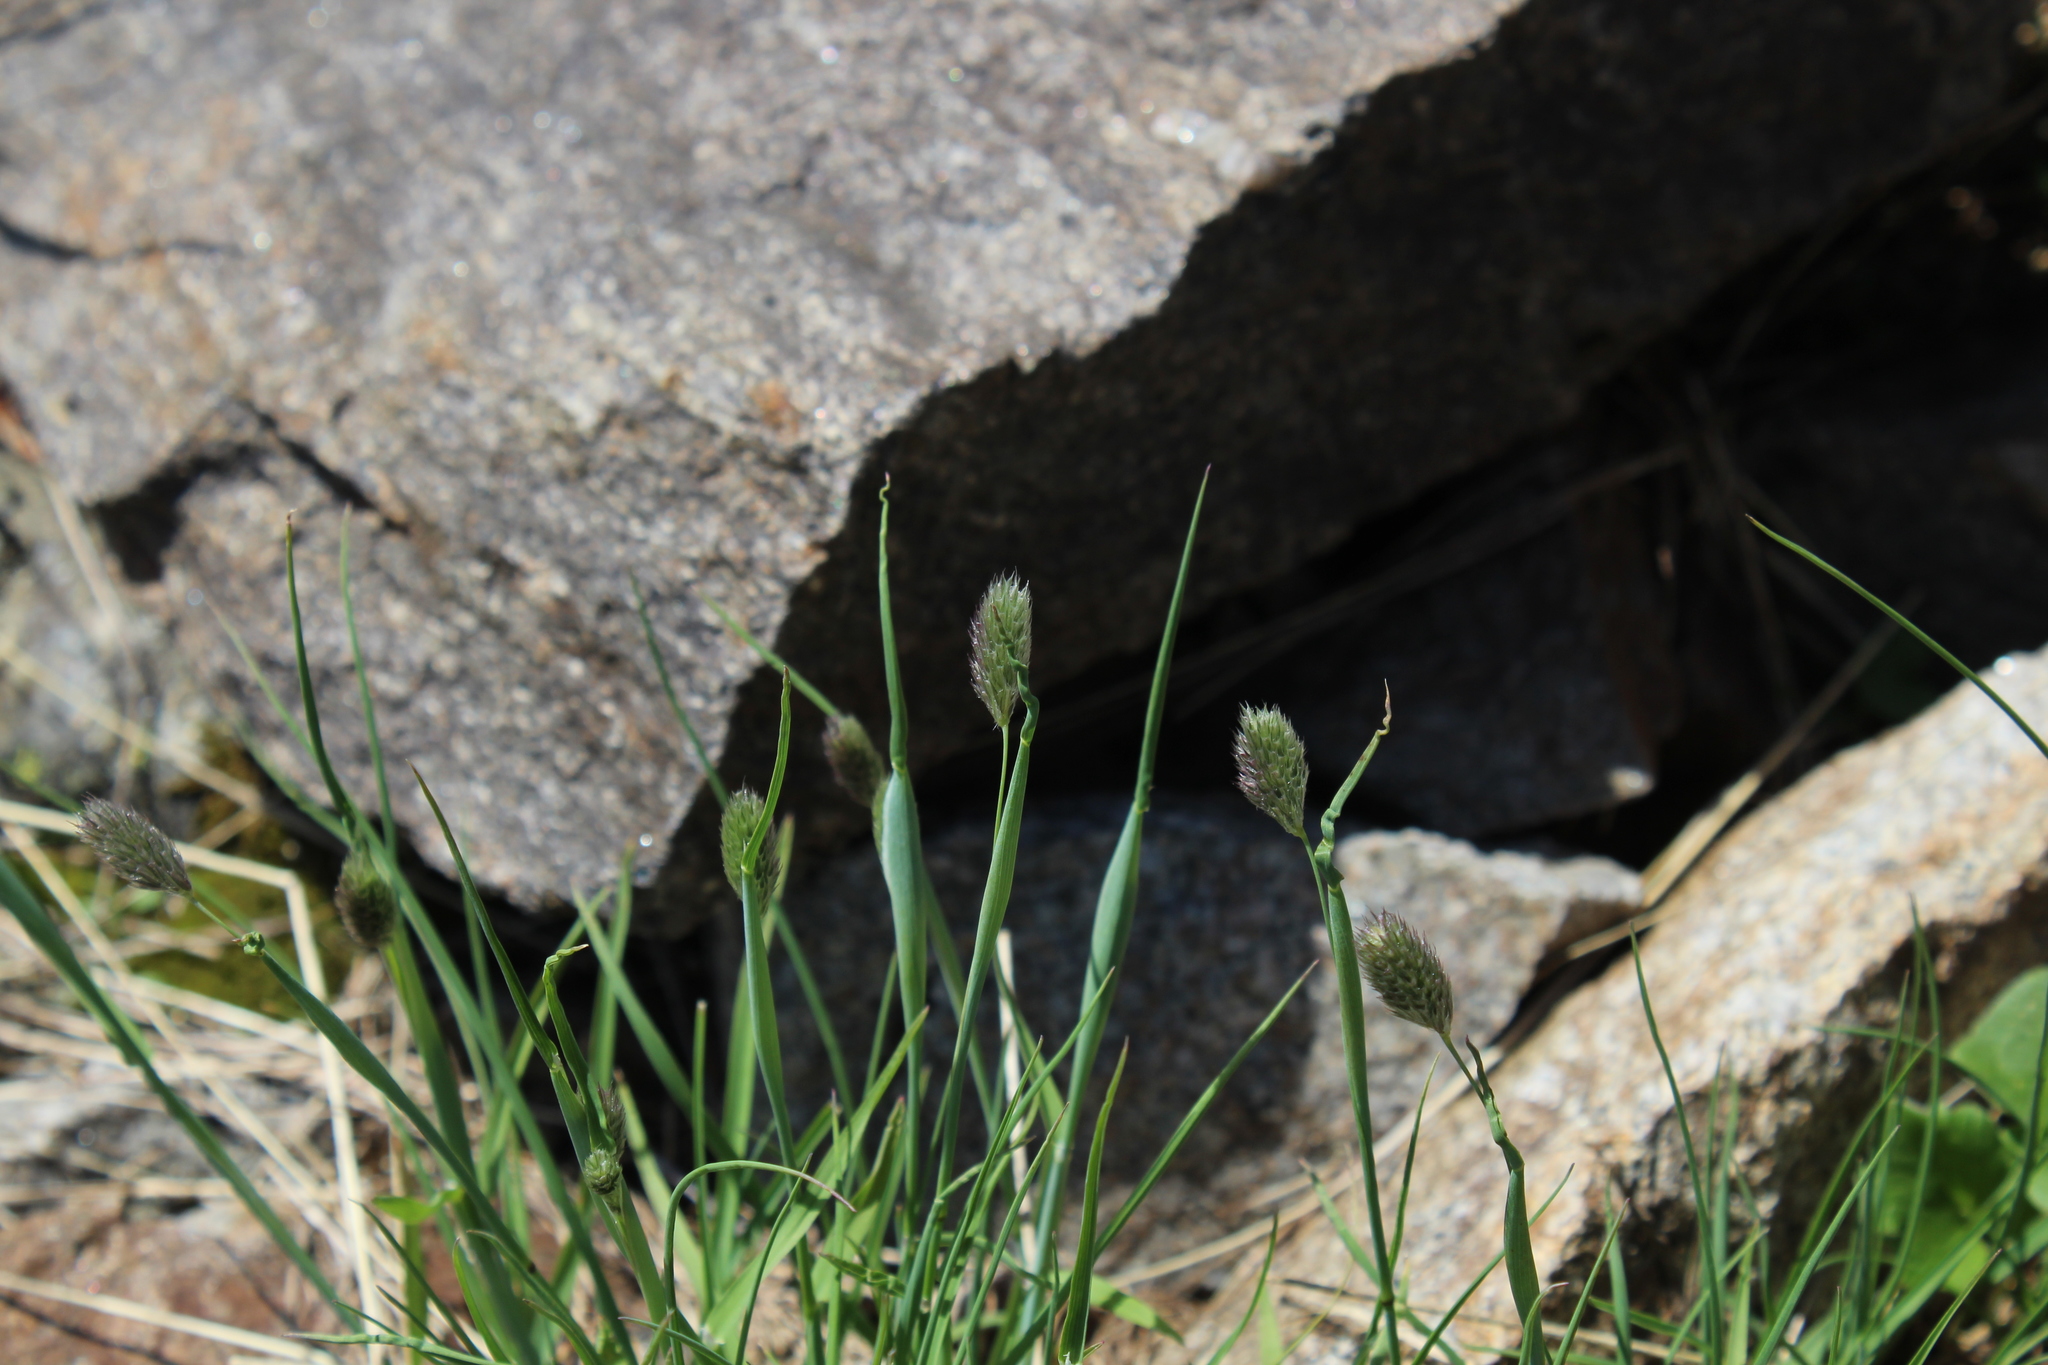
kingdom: Plantae
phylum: Tracheophyta
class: Liliopsida
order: Poales
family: Poaceae
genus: Alopecurus
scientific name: Alopecurus glacialis
